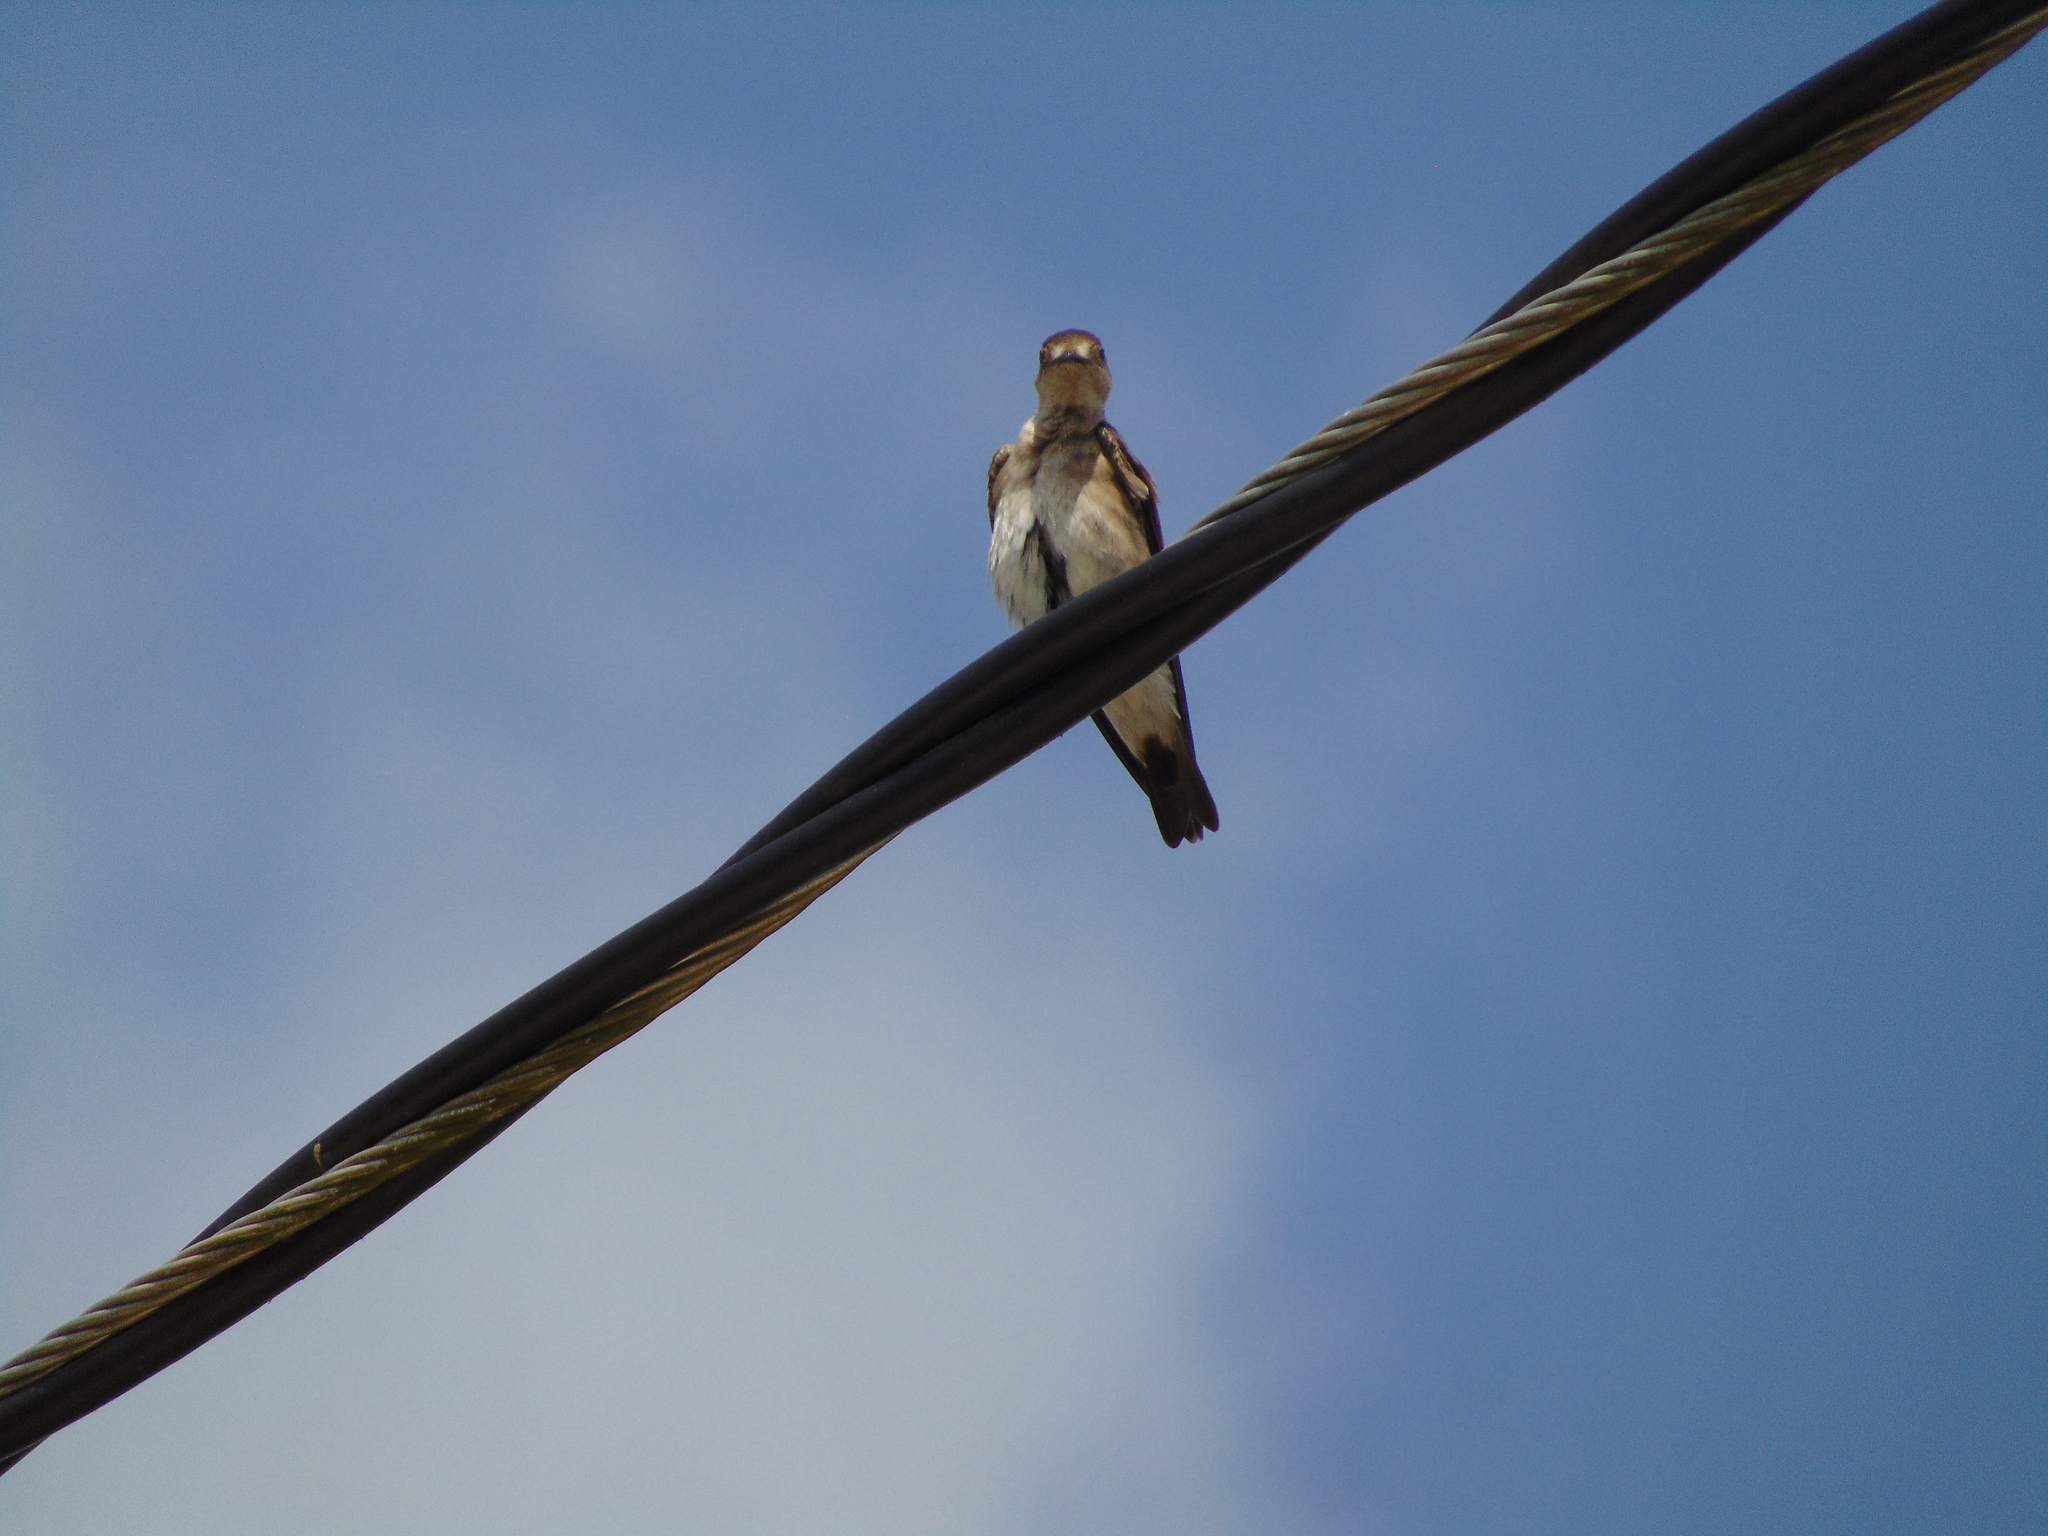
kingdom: Animalia
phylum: Chordata
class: Aves
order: Passeriformes
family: Hirundinidae
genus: Stelgidopteryx
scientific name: Stelgidopteryx serripennis
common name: Northern rough-winged swallow
